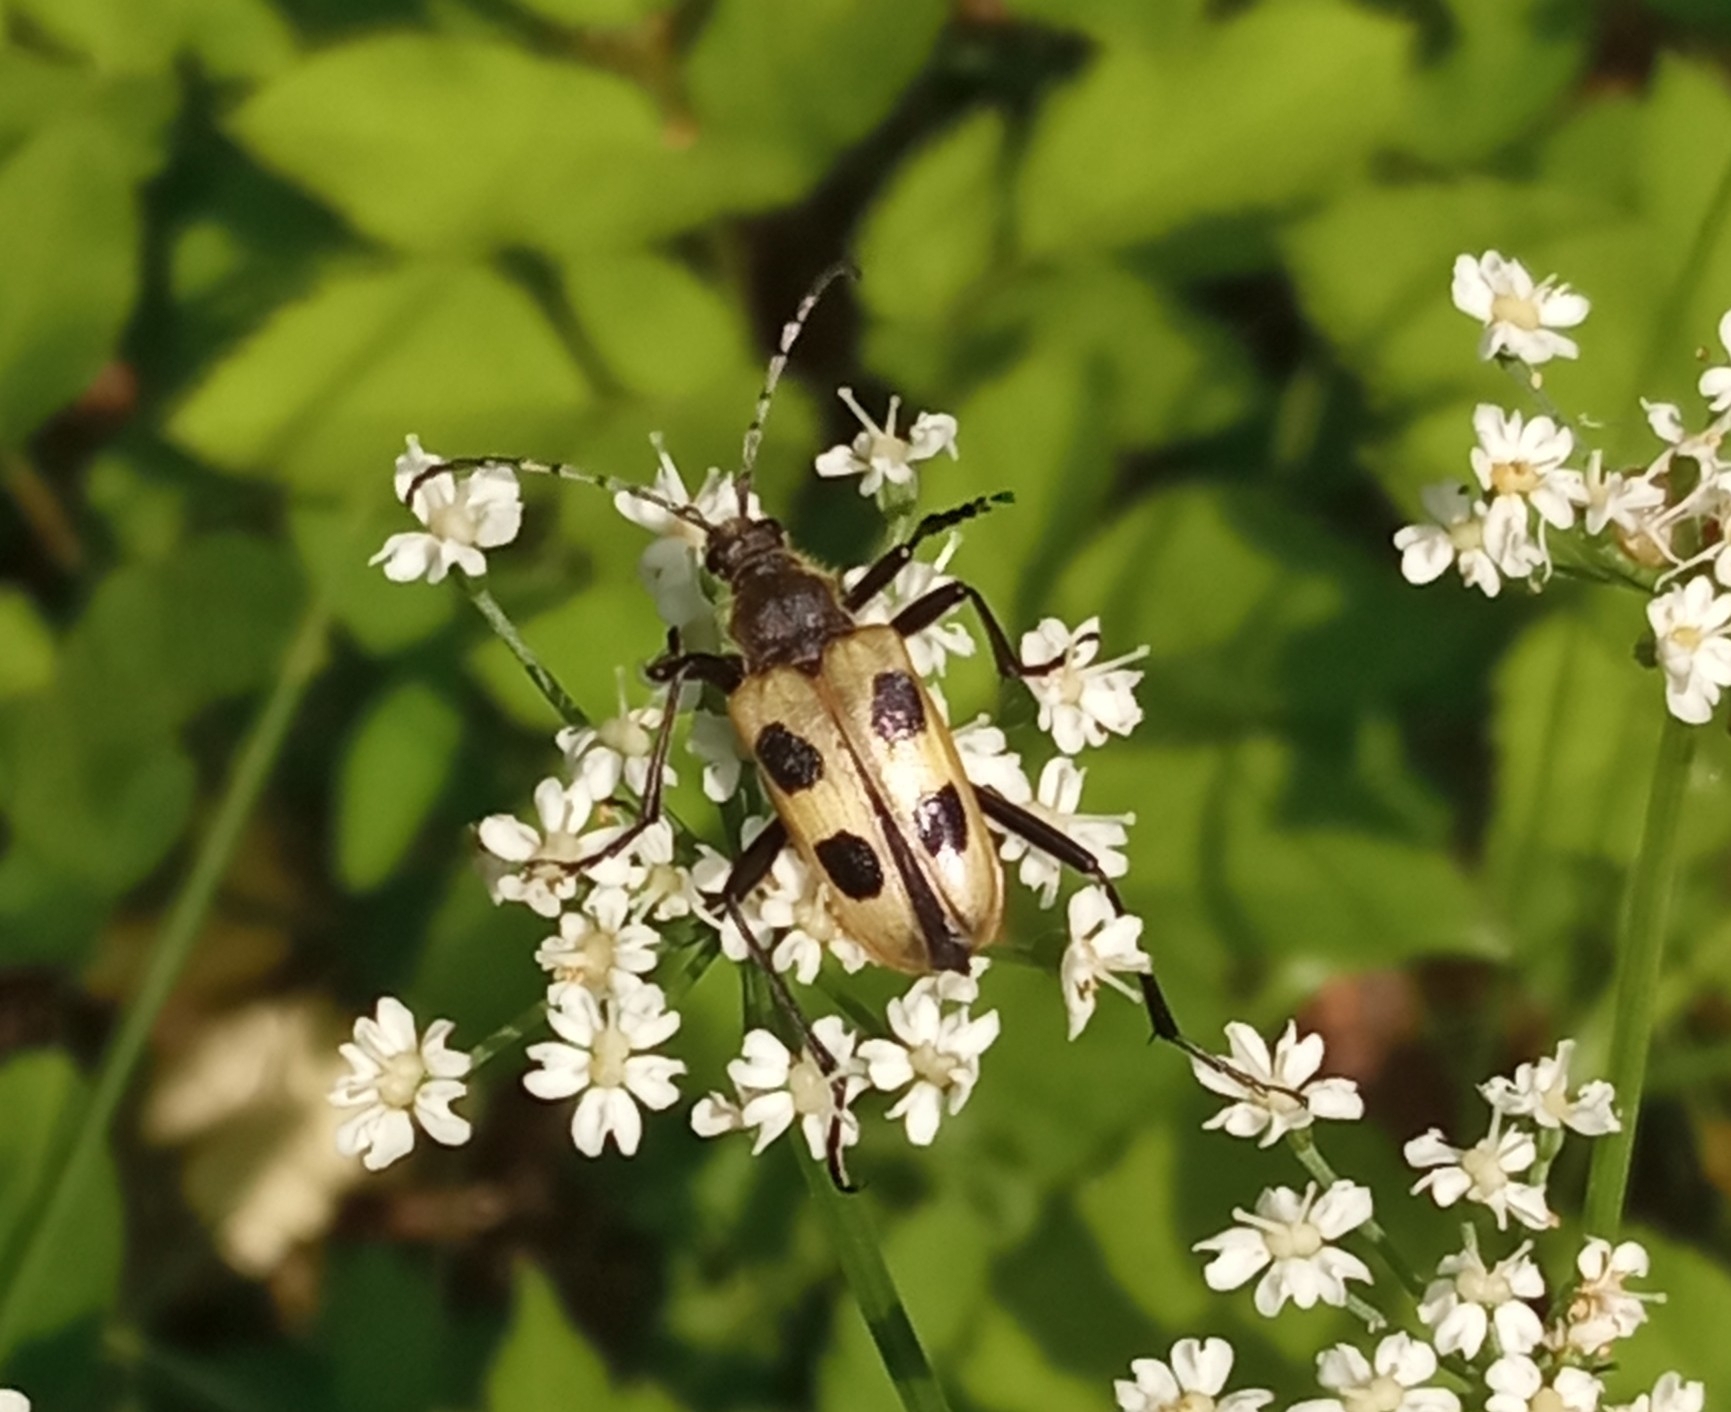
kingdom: Animalia
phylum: Arthropoda
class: Insecta
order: Coleoptera
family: Cerambycidae
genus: Pachyta
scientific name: Pachyta quadrimaculata
